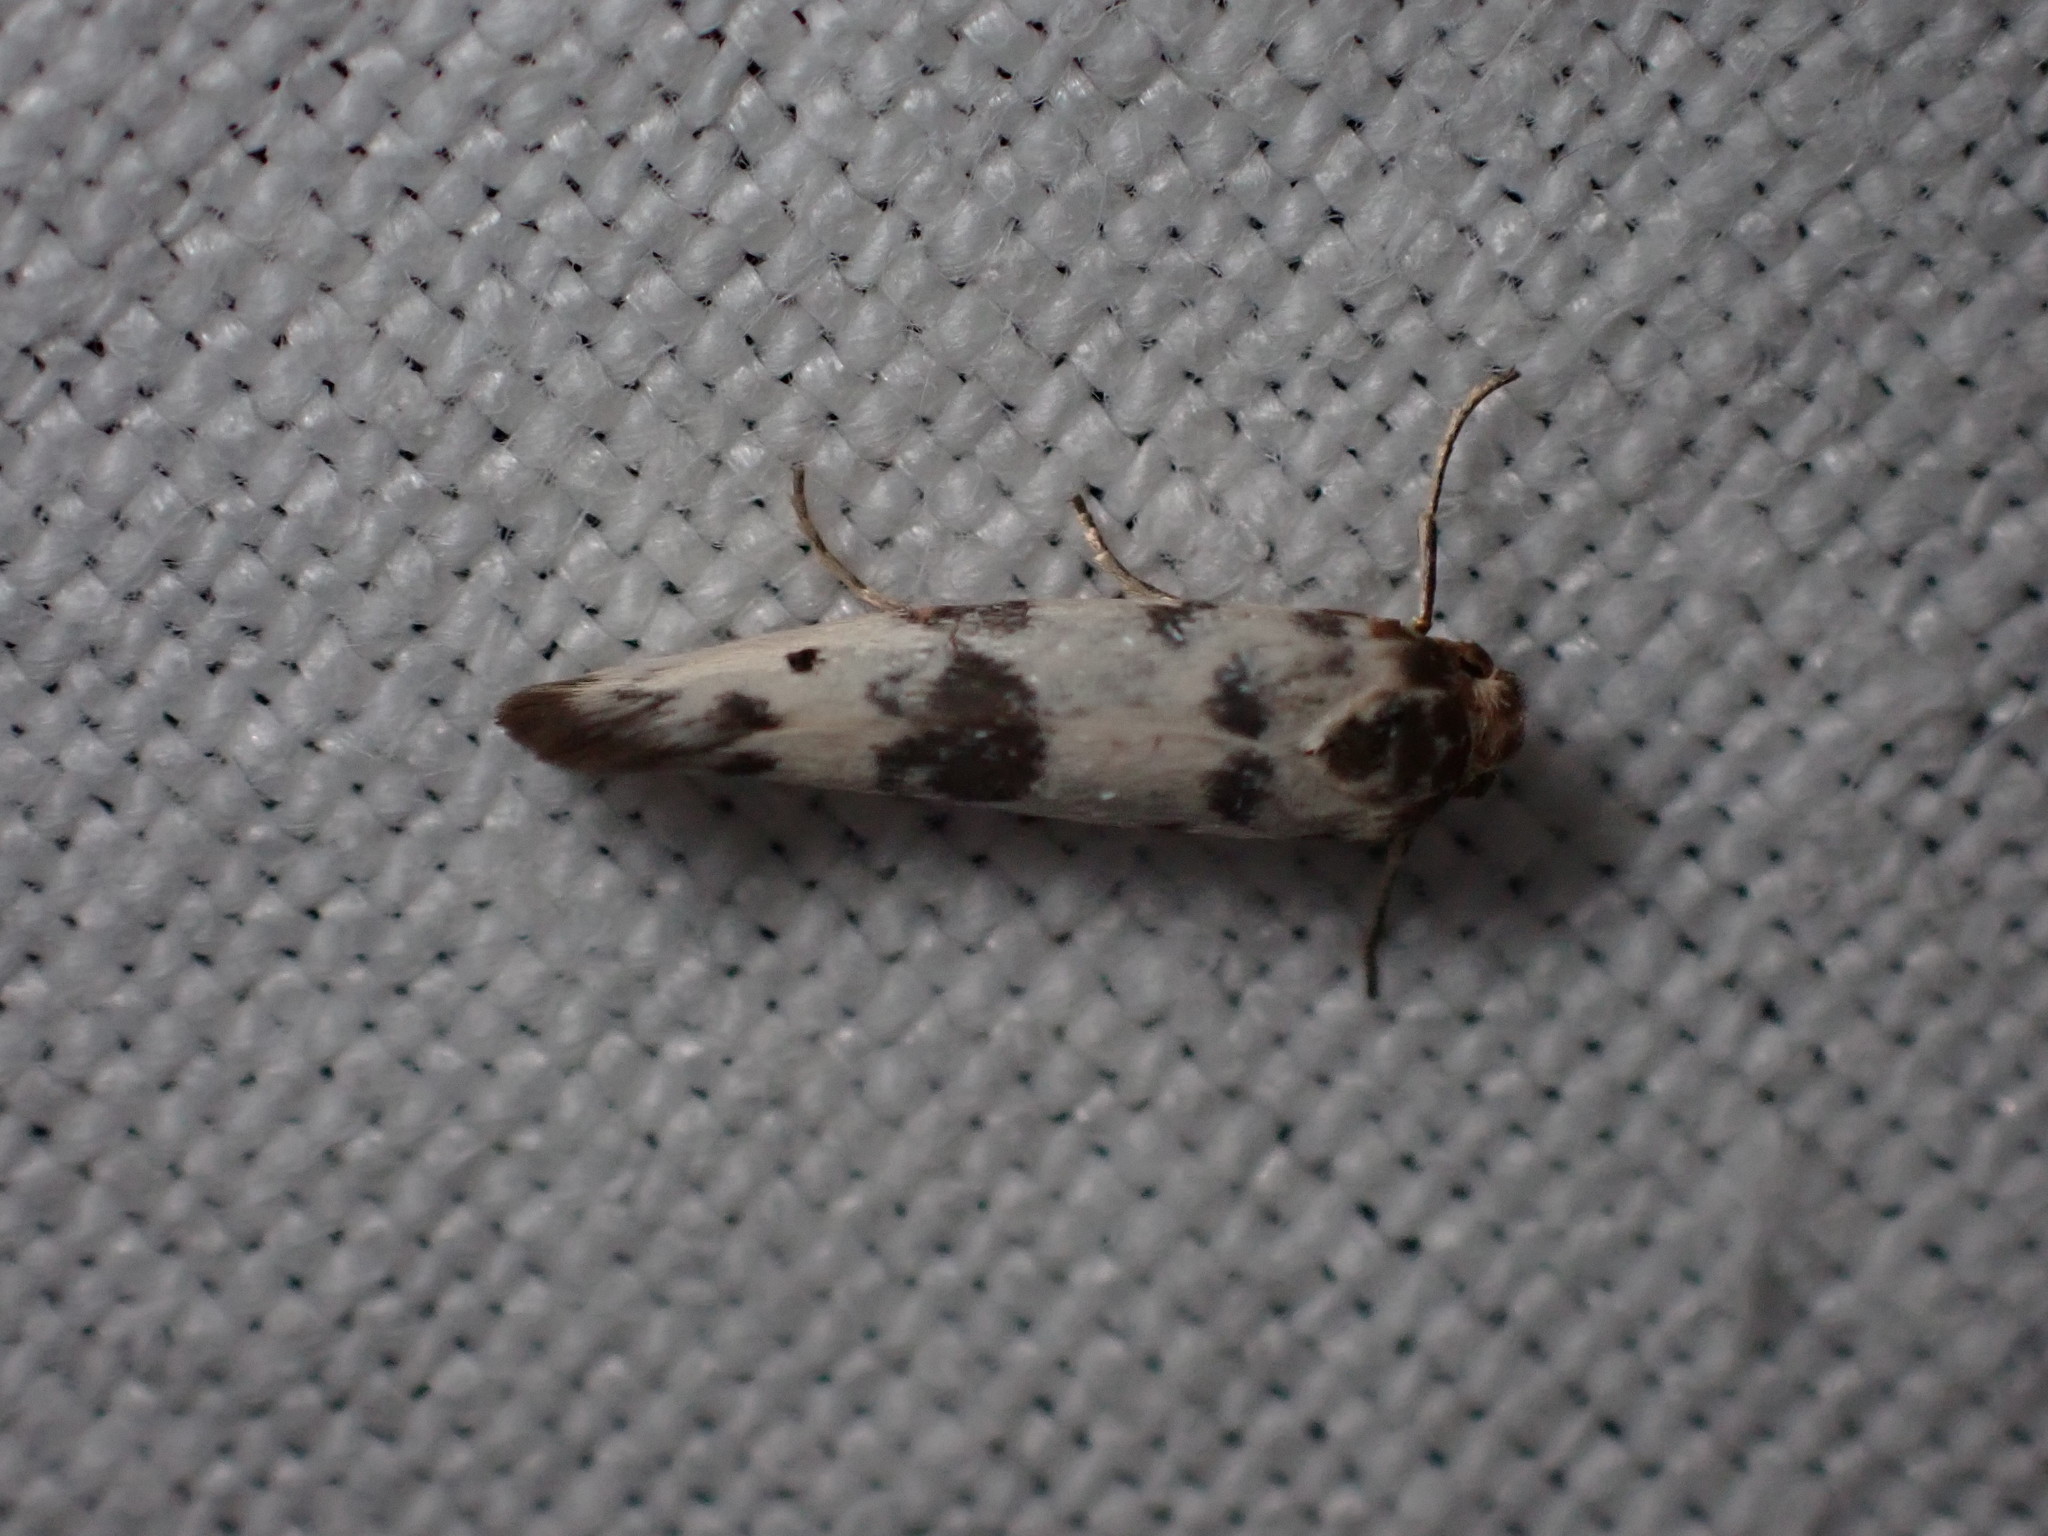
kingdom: Animalia
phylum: Arthropoda
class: Insecta
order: Lepidoptera
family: Scythrididae
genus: Enolmis
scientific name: Enolmis
